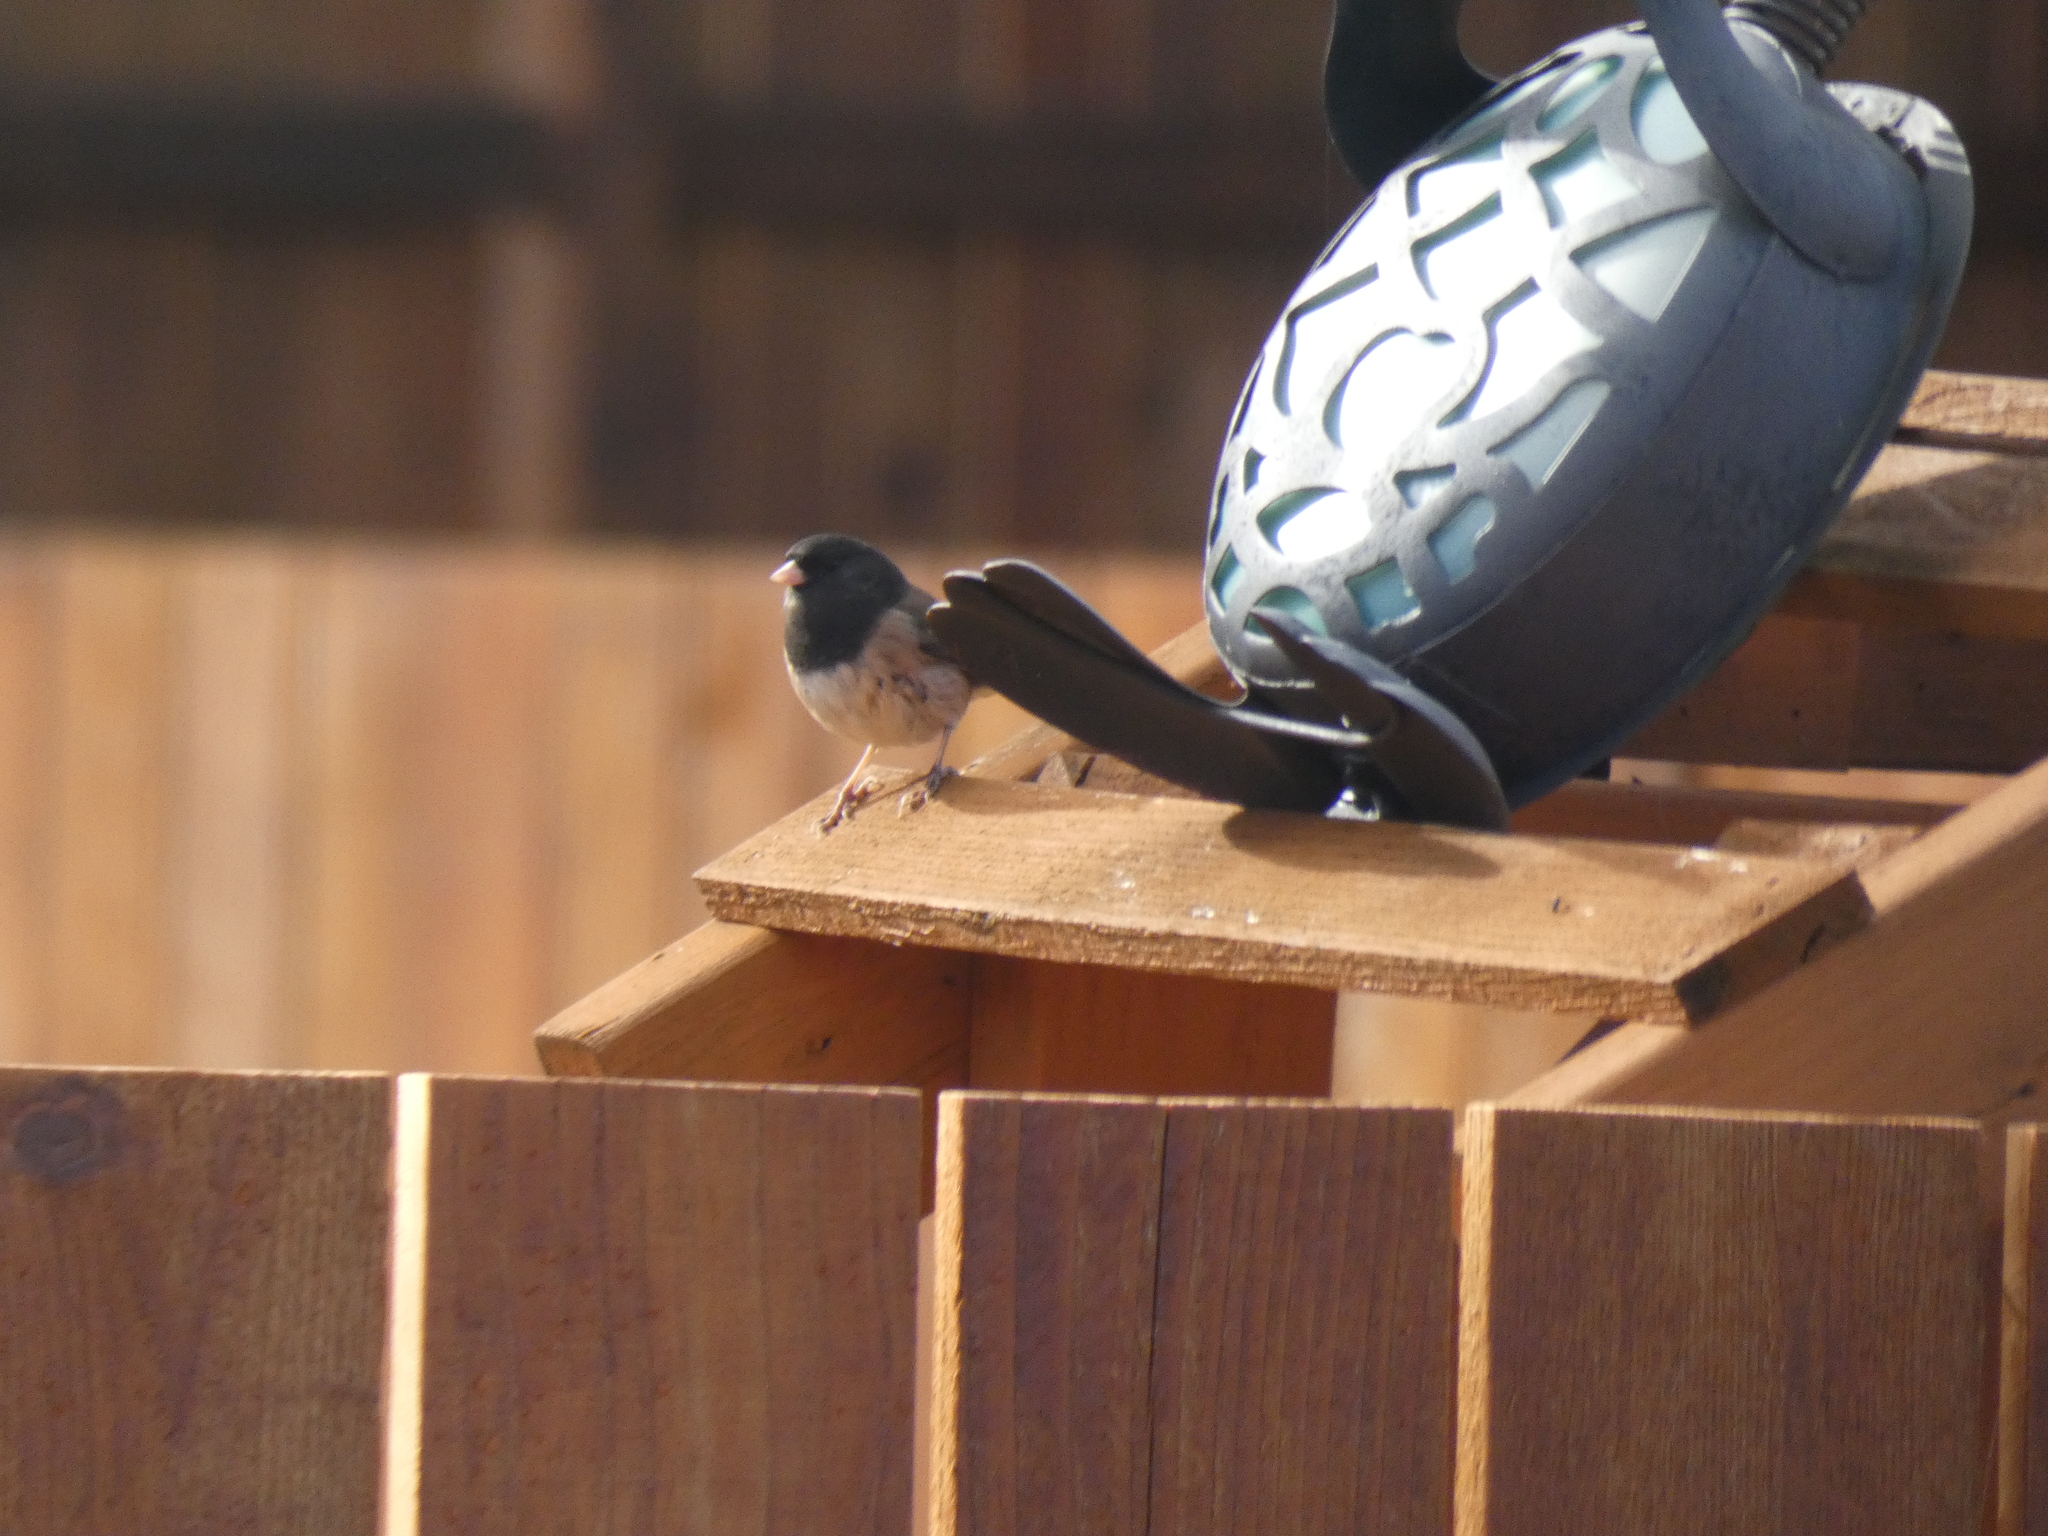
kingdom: Animalia
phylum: Chordata
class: Aves
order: Passeriformes
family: Passerellidae
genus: Junco
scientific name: Junco hyemalis
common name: Dark-eyed junco
